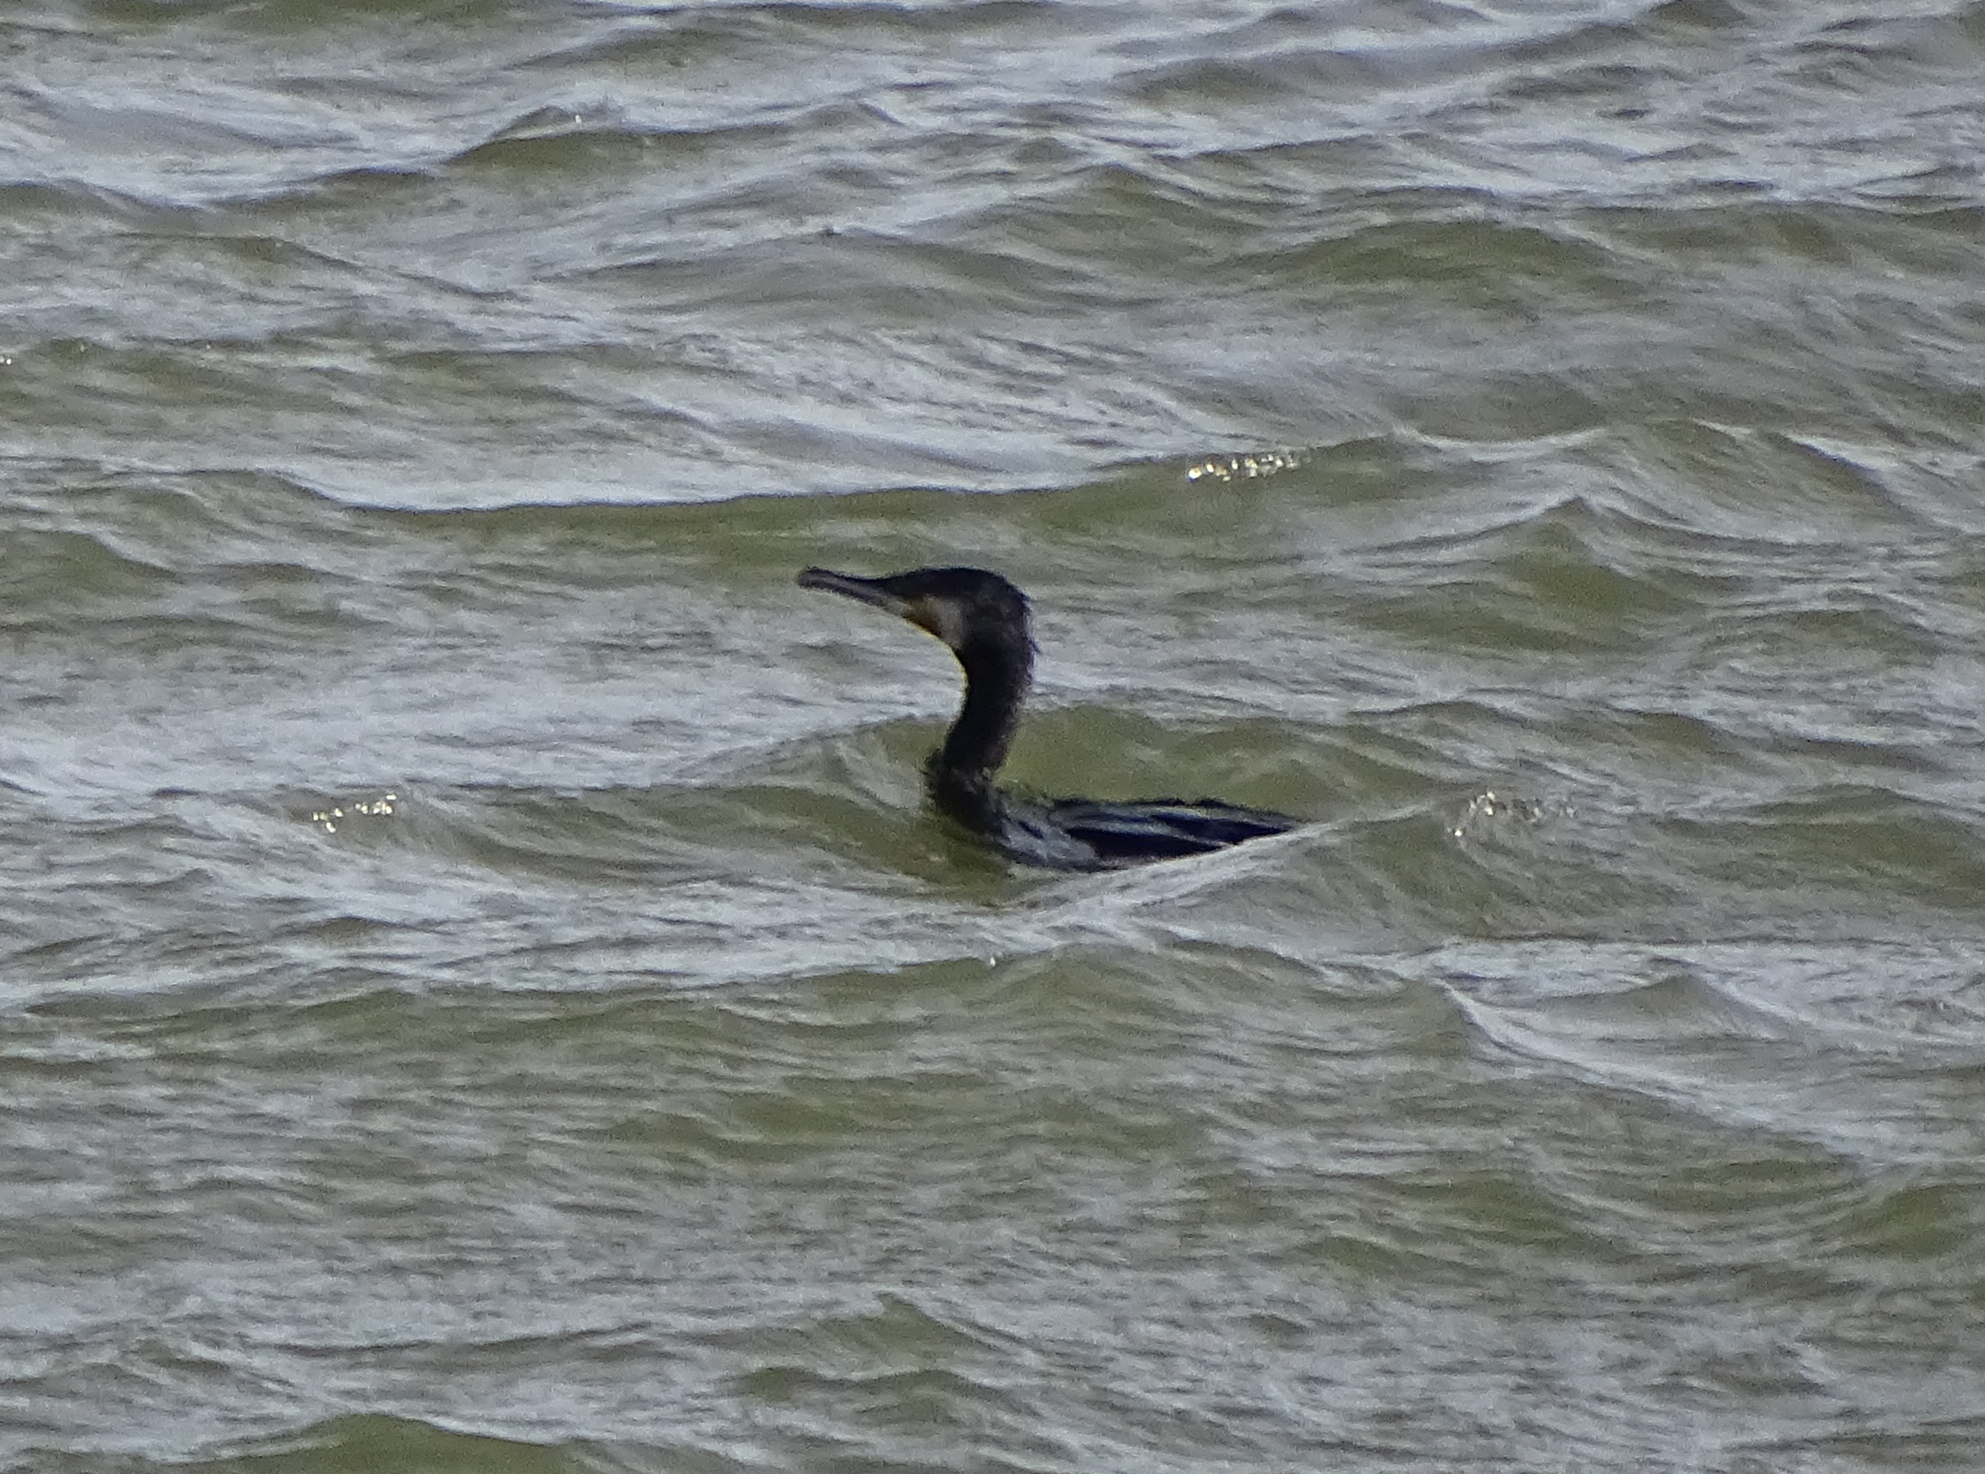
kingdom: Animalia
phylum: Chordata
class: Aves
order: Suliformes
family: Phalacrocoracidae
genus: Phalacrocorax
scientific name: Phalacrocorax carbo
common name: Great cormorant
